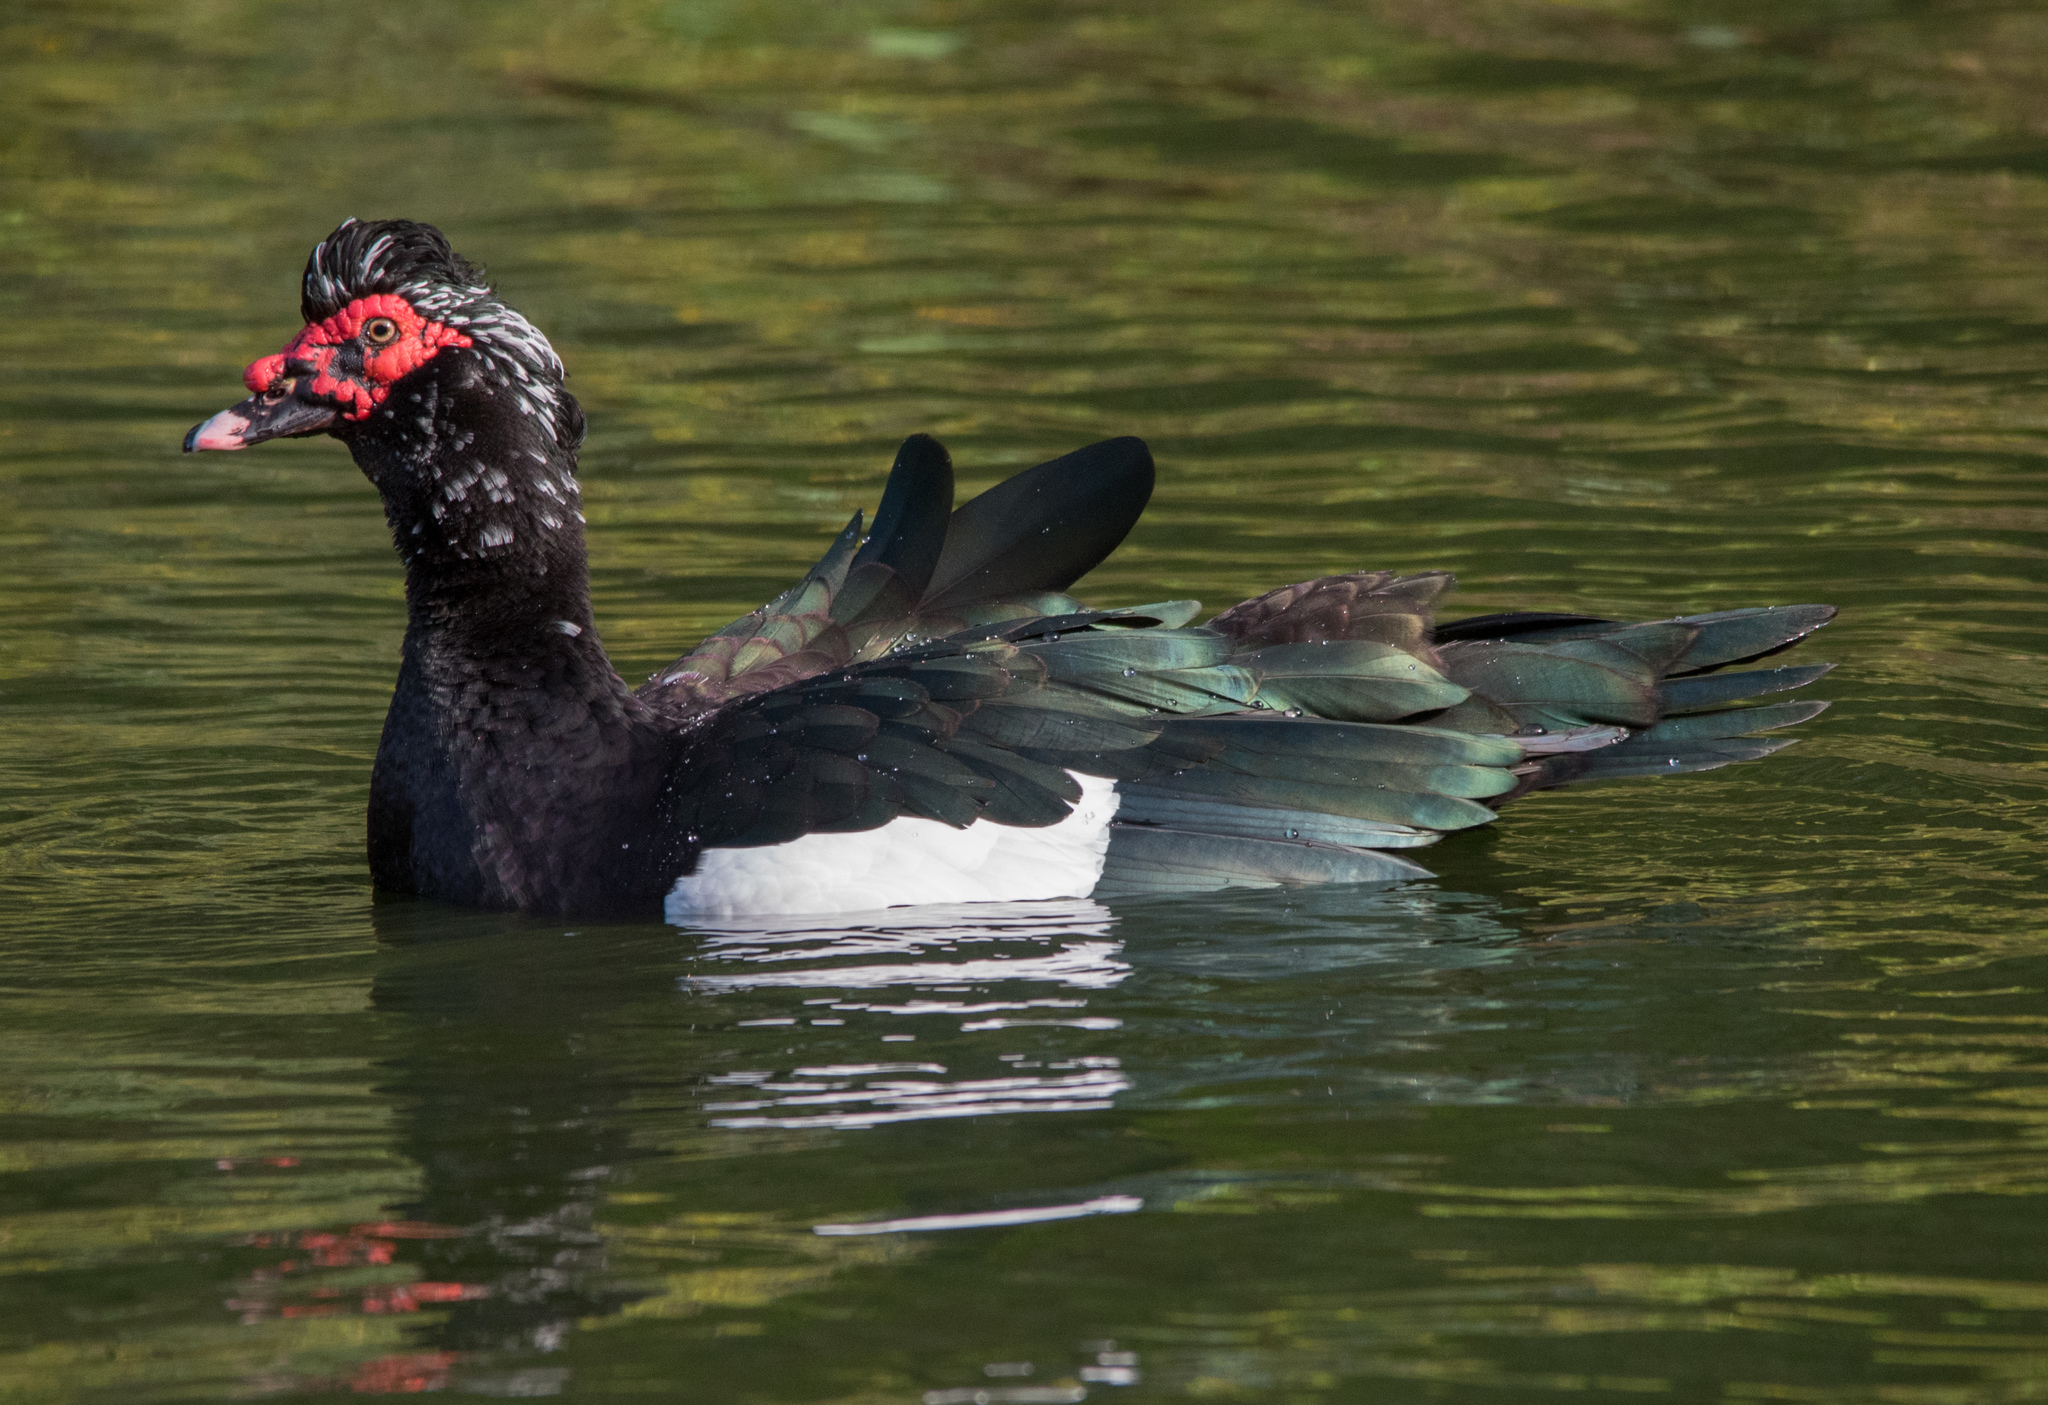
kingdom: Animalia
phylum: Chordata
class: Aves
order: Anseriformes
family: Anatidae
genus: Cairina
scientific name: Cairina moschata
